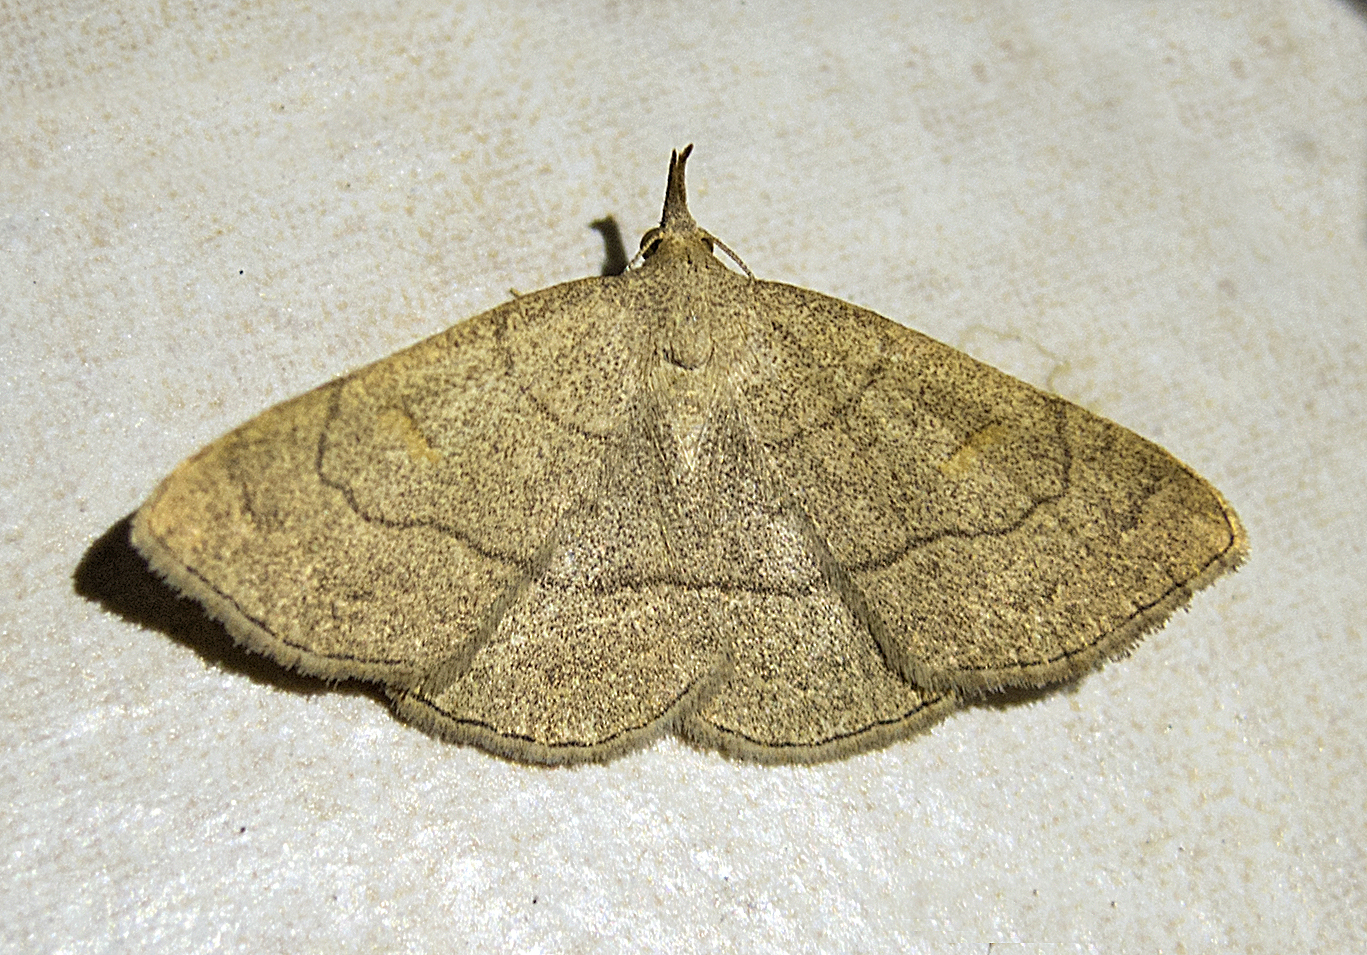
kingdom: Animalia
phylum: Arthropoda
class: Insecta
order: Lepidoptera
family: Erebidae
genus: Paracolax
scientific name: Paracolax tristalis
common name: Clay fan-foot
